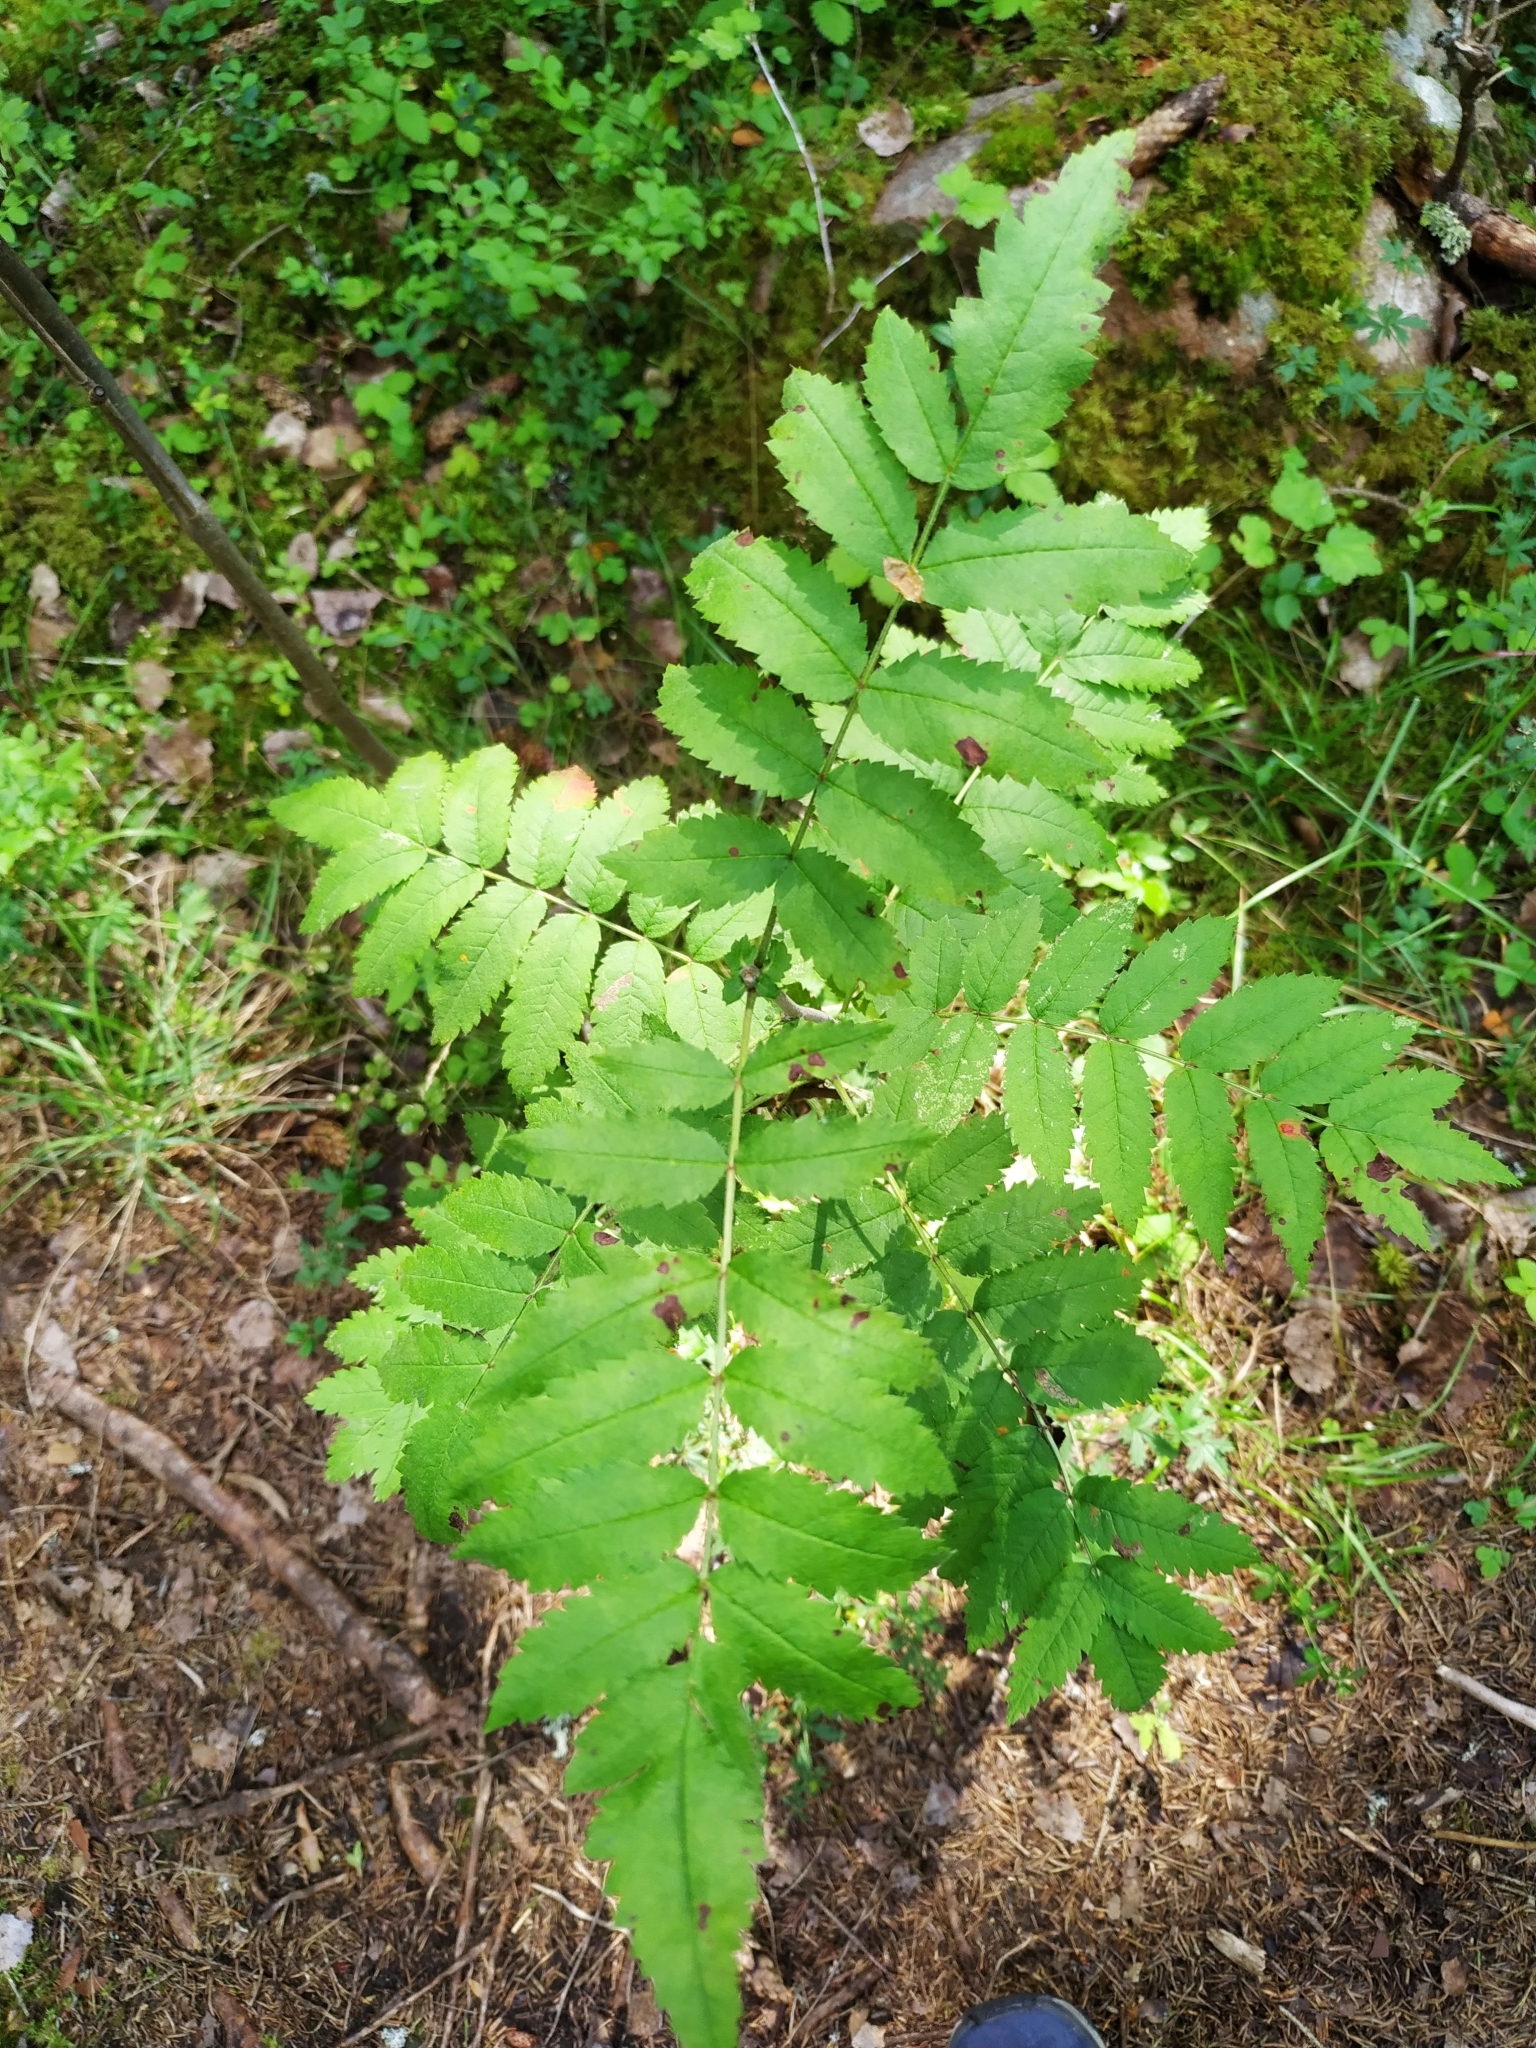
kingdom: Plantae
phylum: Tracheophyta
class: Magnoliopsida
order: Rosales
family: Rosaceae
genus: Sorbus
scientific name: Sorbus aucuparia
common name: Rowan
